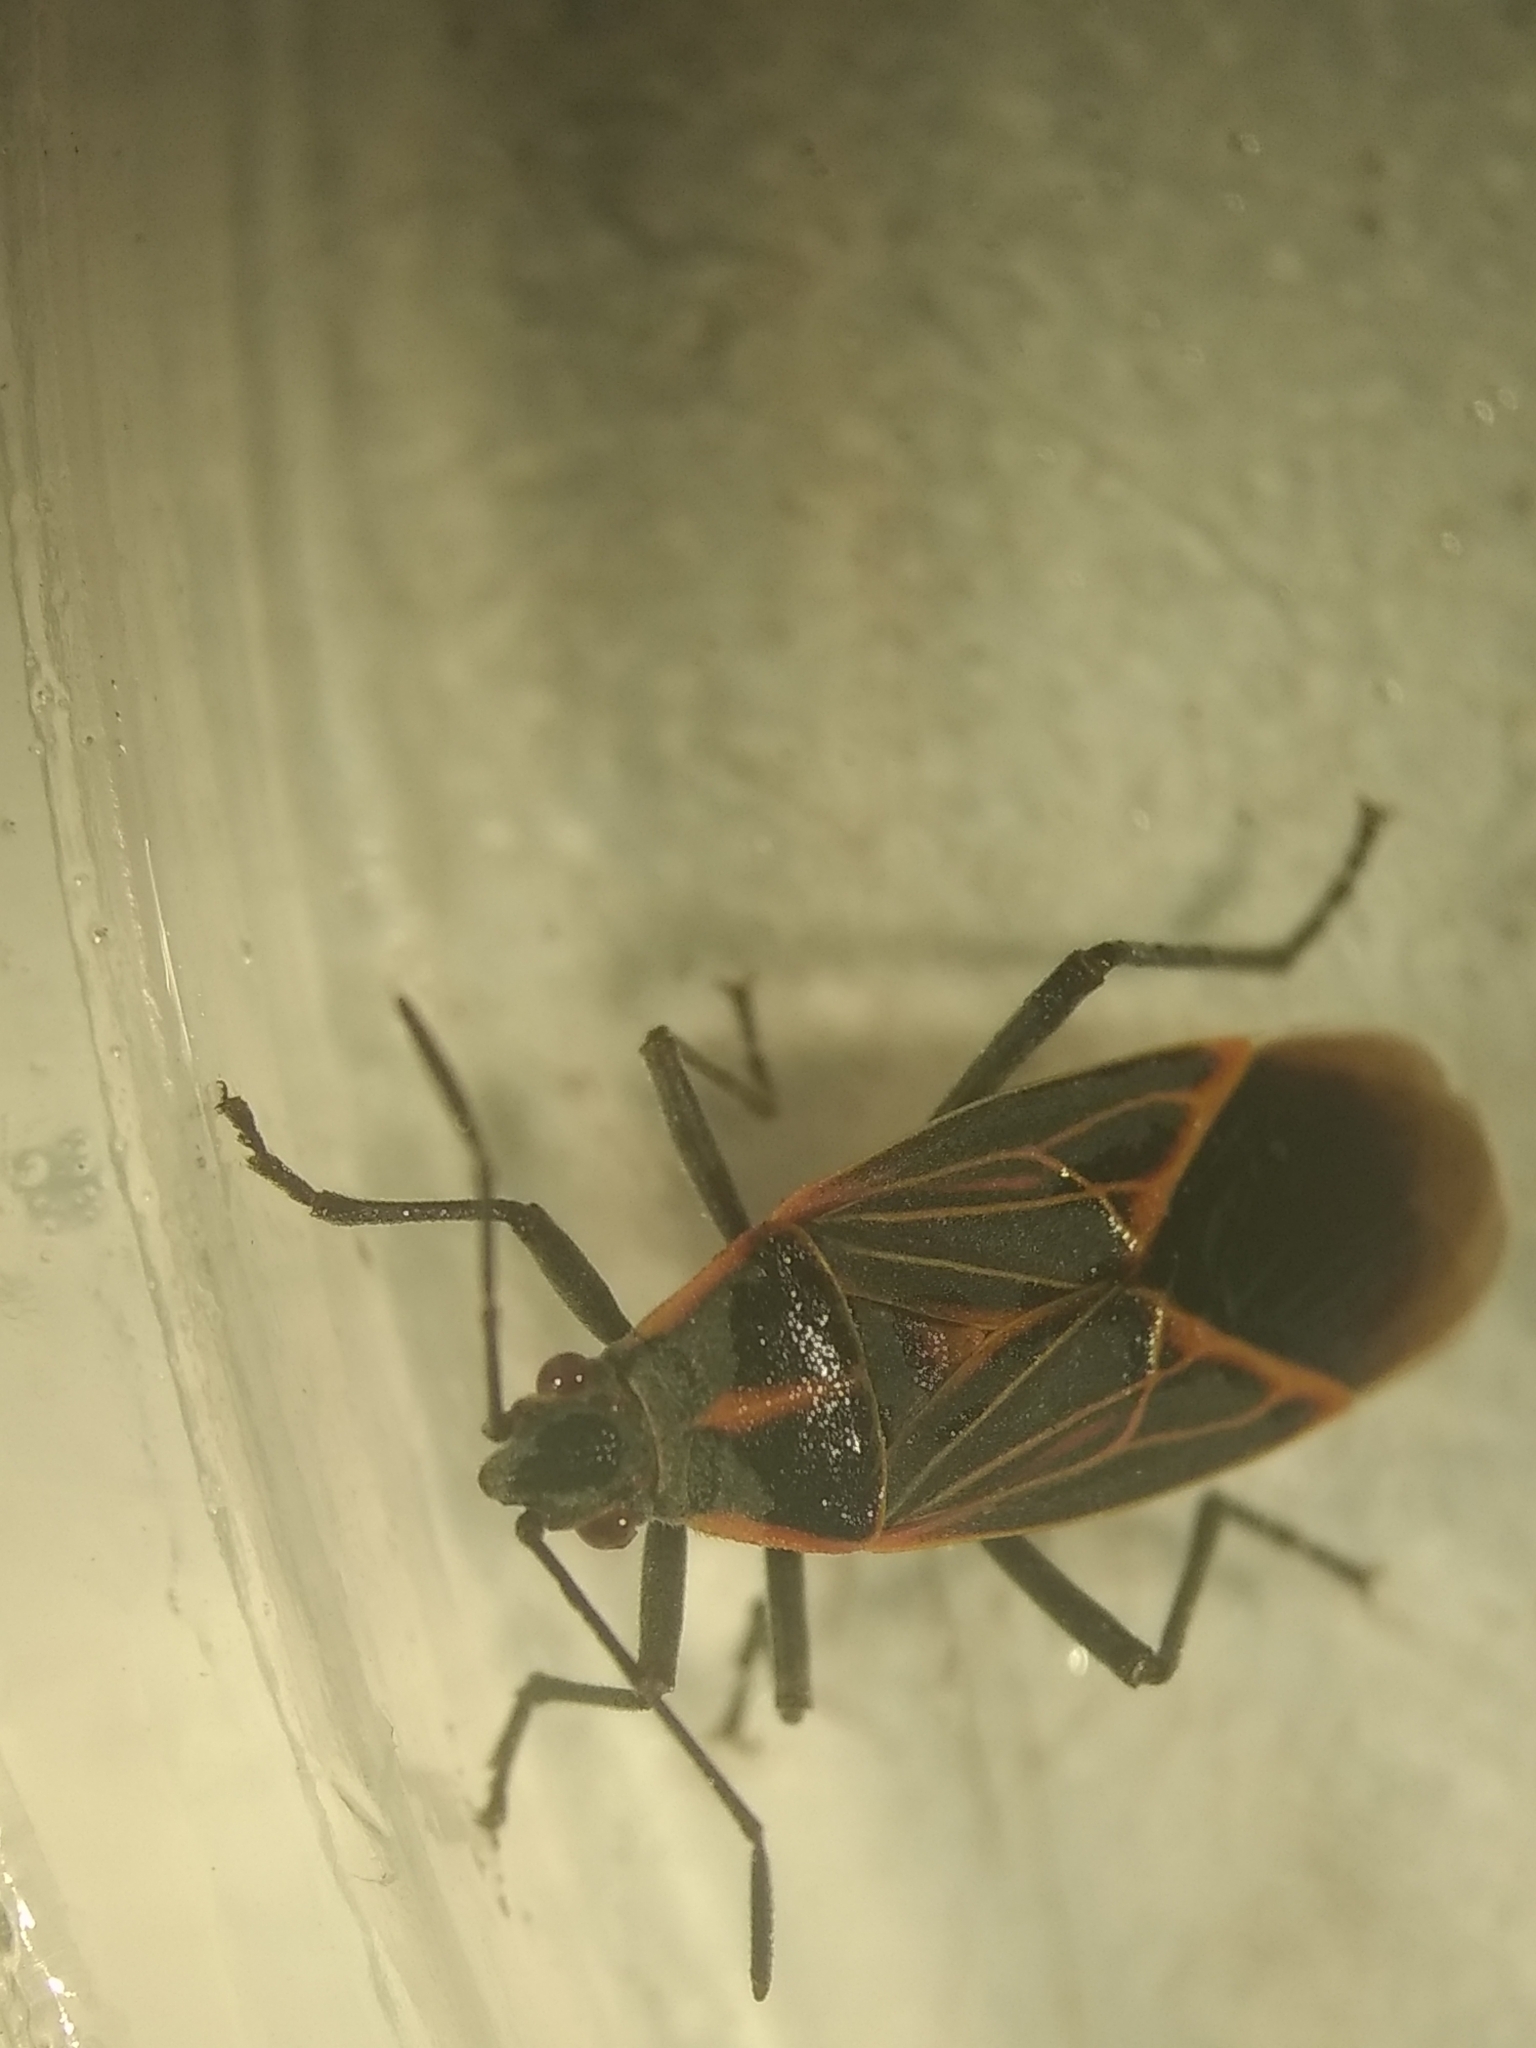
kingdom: Animalia
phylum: Arthropoda
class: Insecta
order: Hemiptera
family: Rhopalidae
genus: Boisea
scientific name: Boisea rubrolineata
